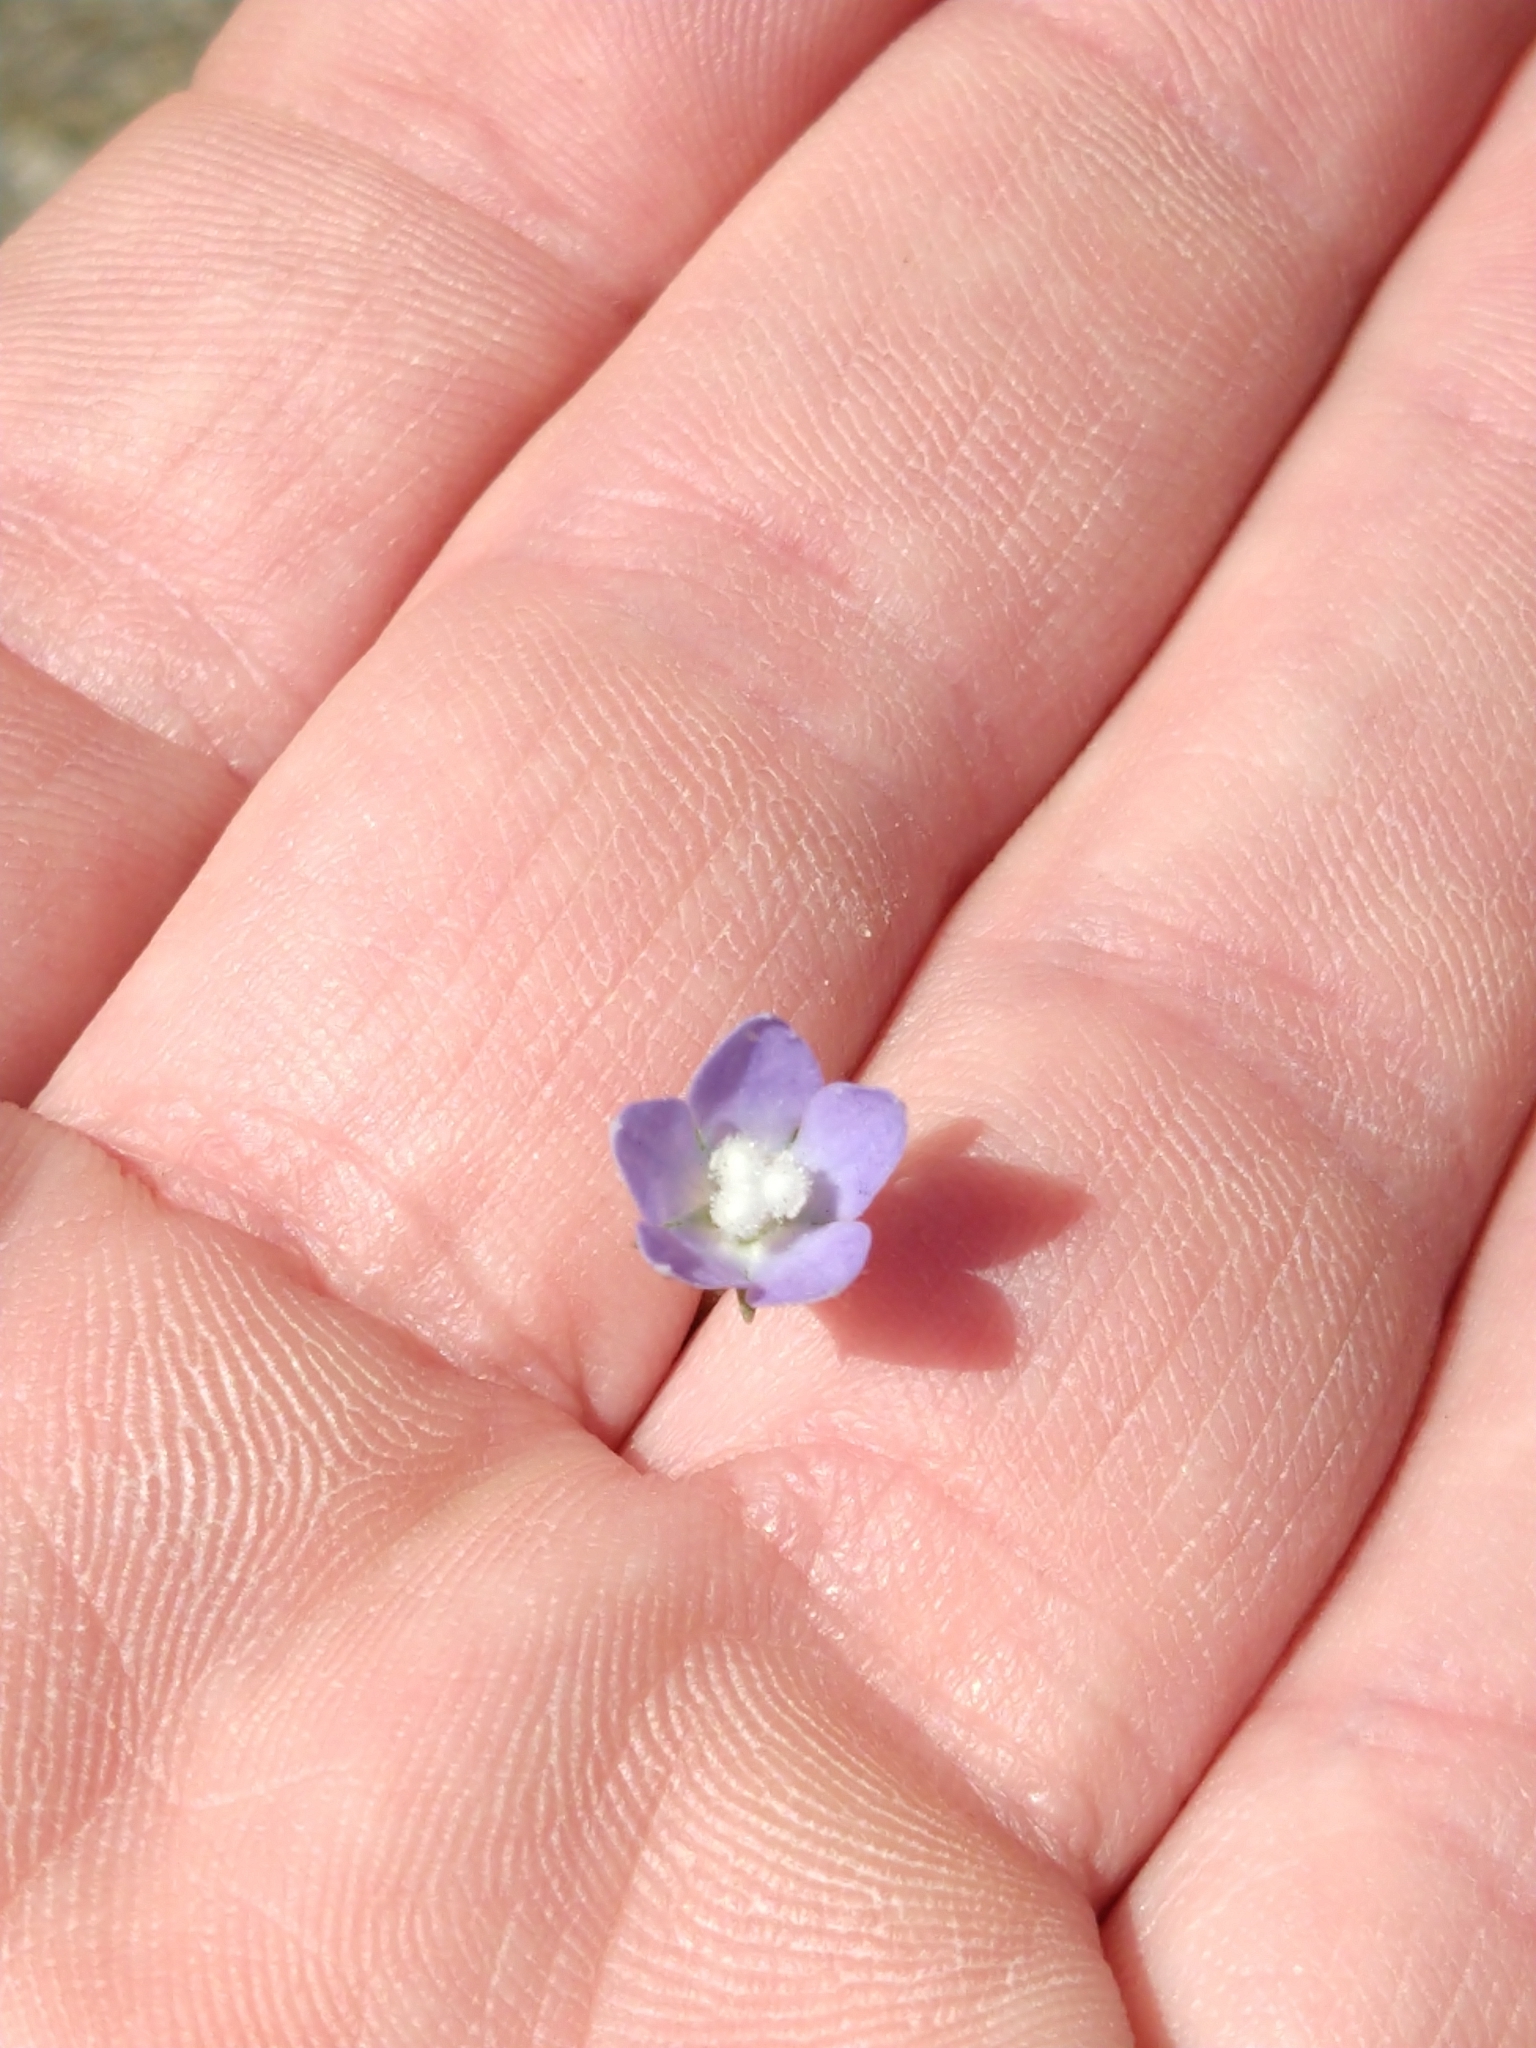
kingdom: Plantae
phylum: Tracheophyta
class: Magnoliopsida
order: Asterales
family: Campanulaceae
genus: Wahlenbergia
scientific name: Wahlenbergia marginata
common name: Southern rockbell
